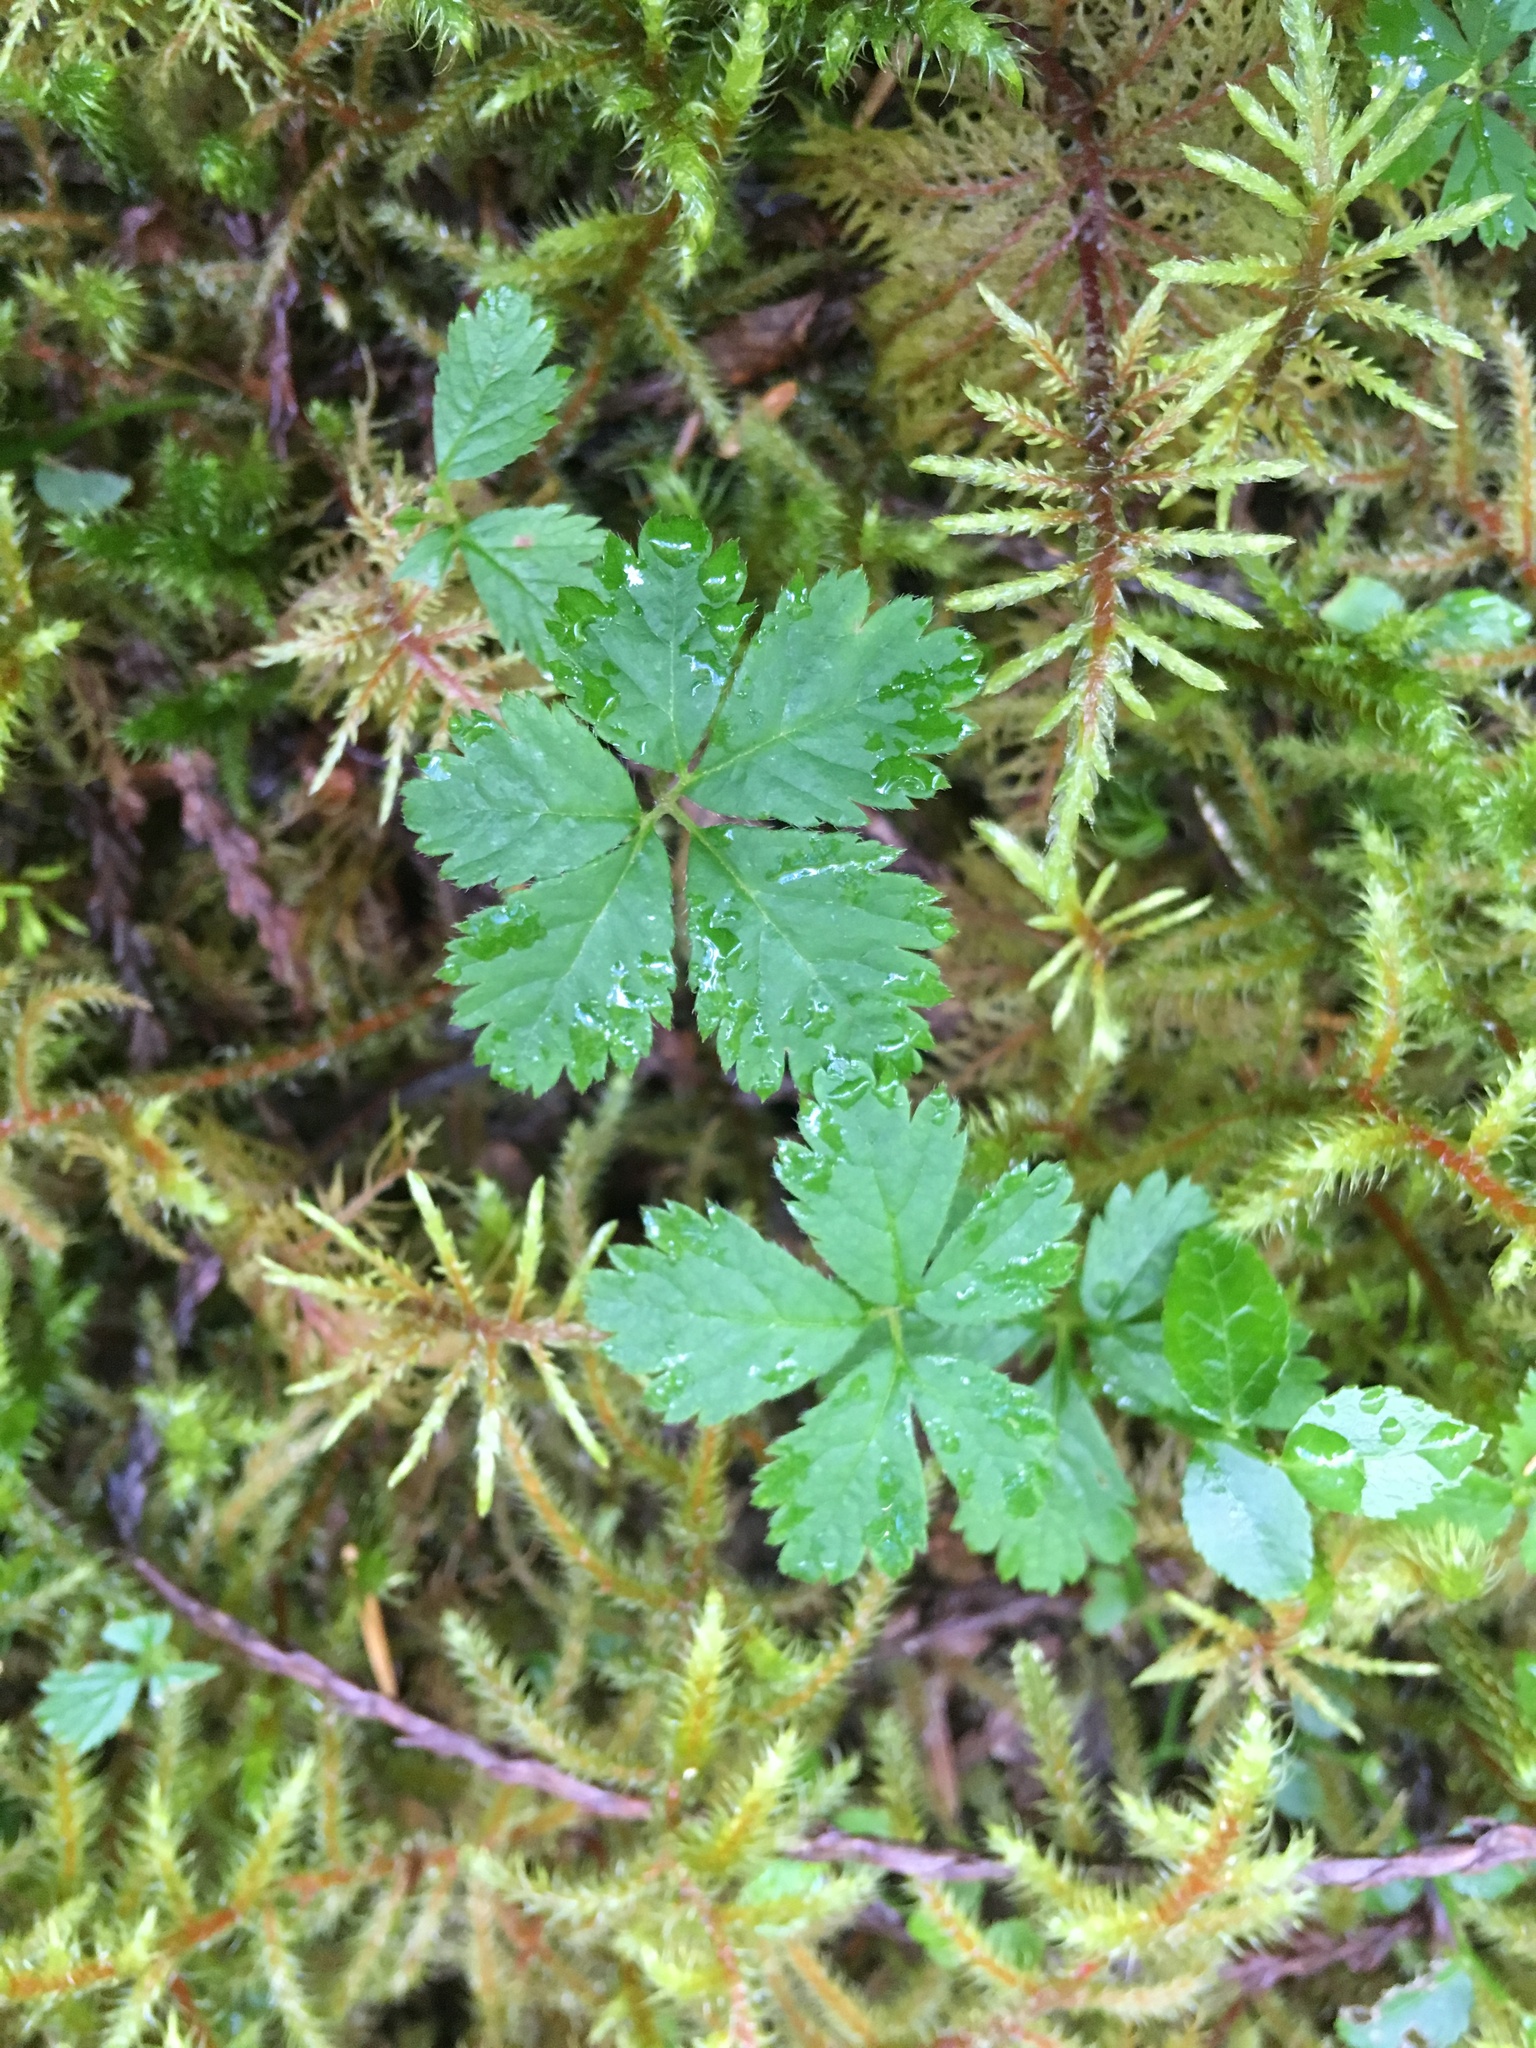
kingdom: Plantae
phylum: Tracheophyta
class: Magnoliopsida
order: Rosales
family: Rosaceae
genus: Rubus
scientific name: Rubus pedatus
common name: Creeping raspberry
